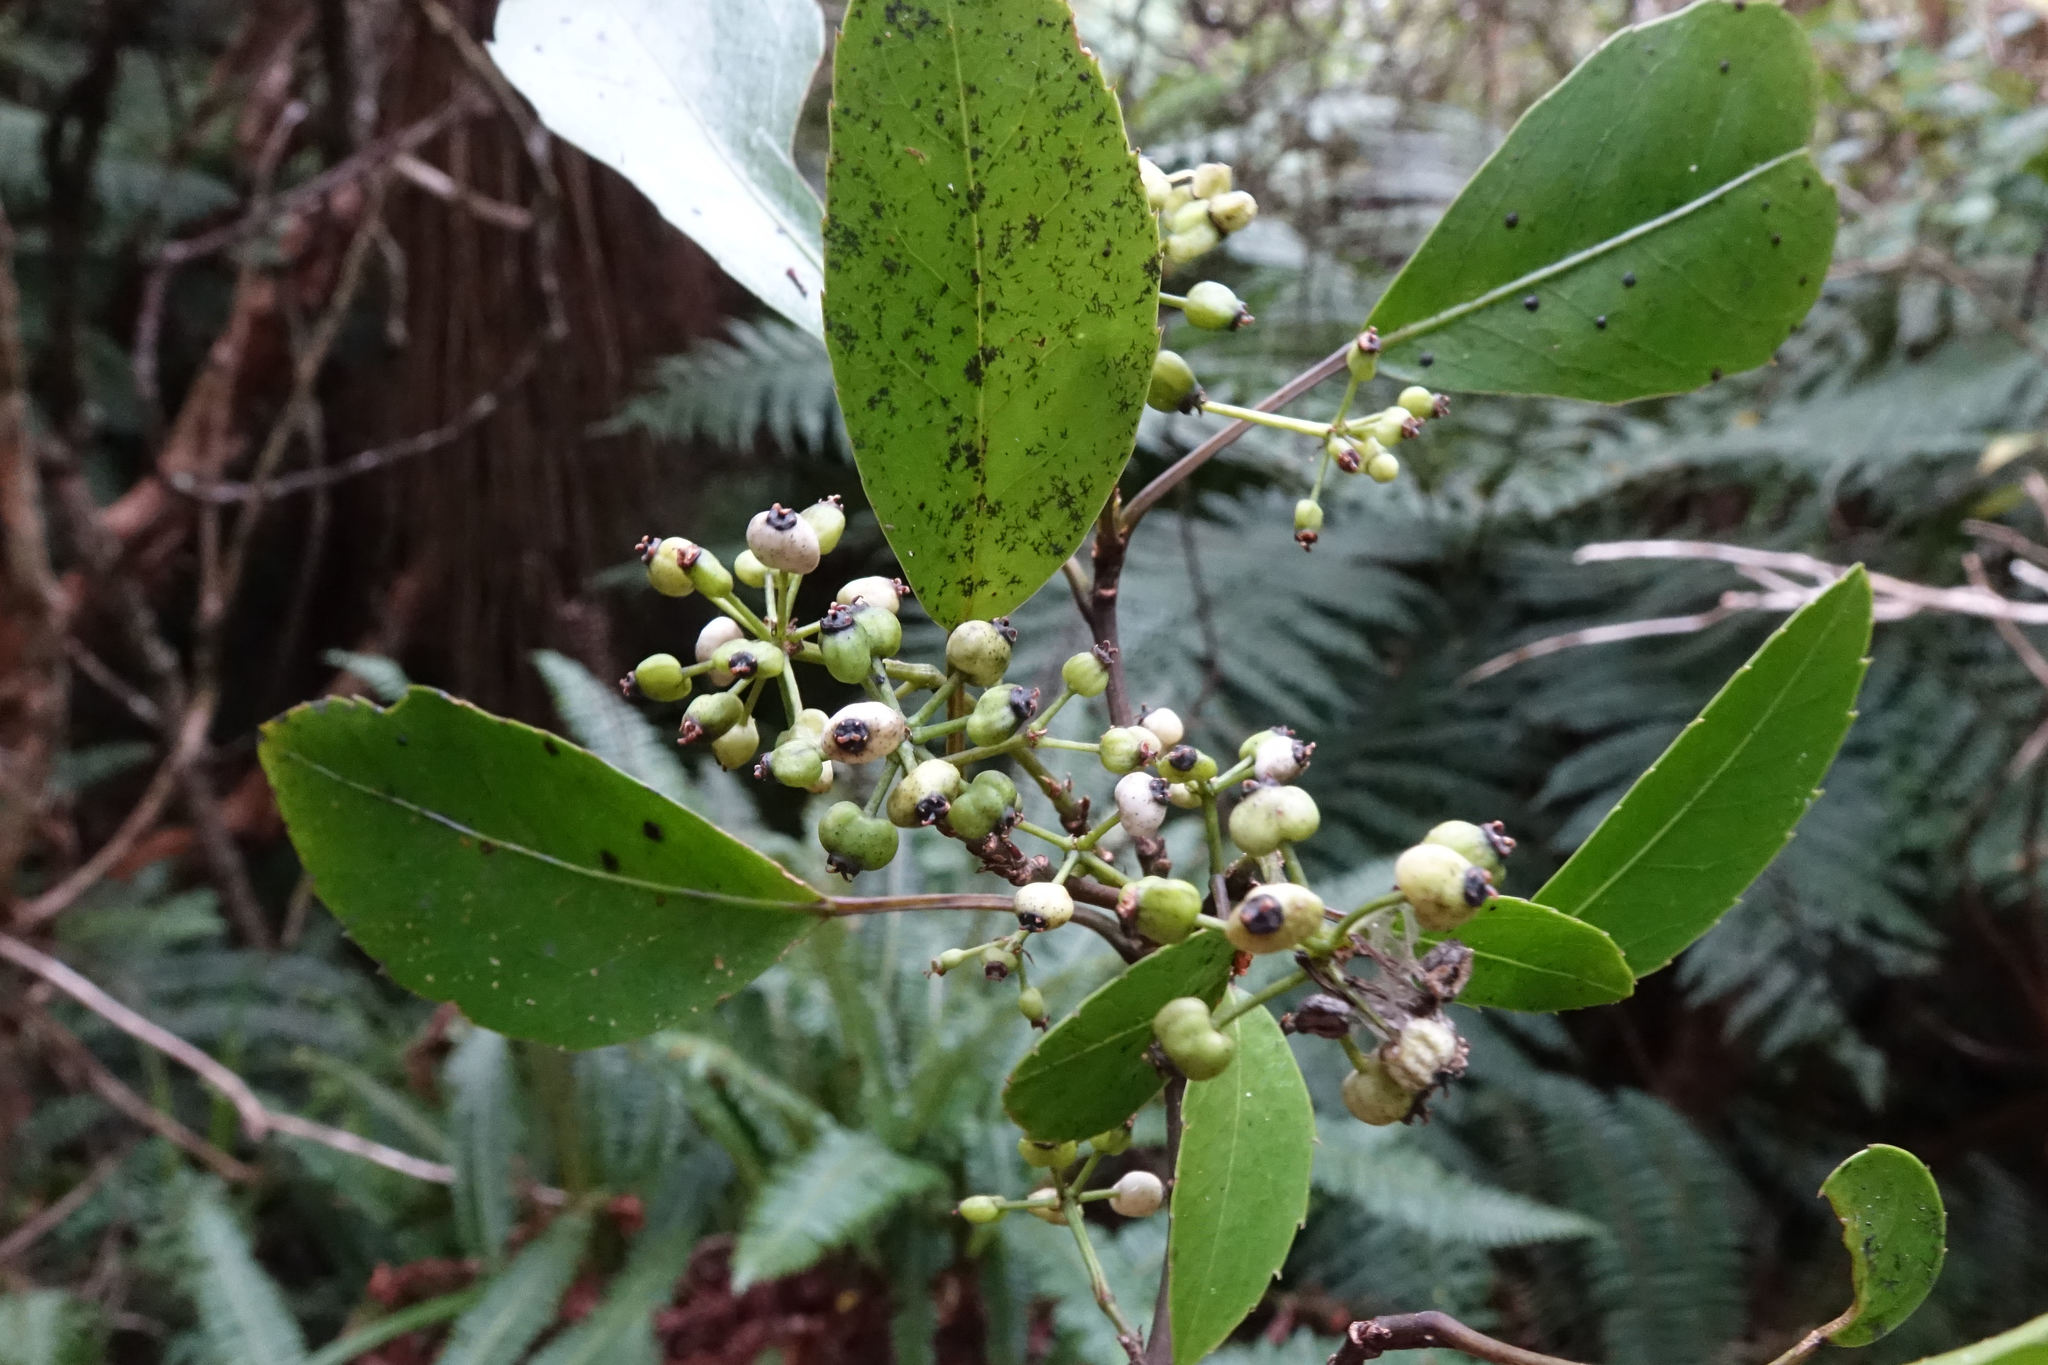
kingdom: Plantae
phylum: Tracheophyta
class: Magnoliopsida
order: Apiales
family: Araliaceae
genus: Raukaua
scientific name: Raukaua simplex
